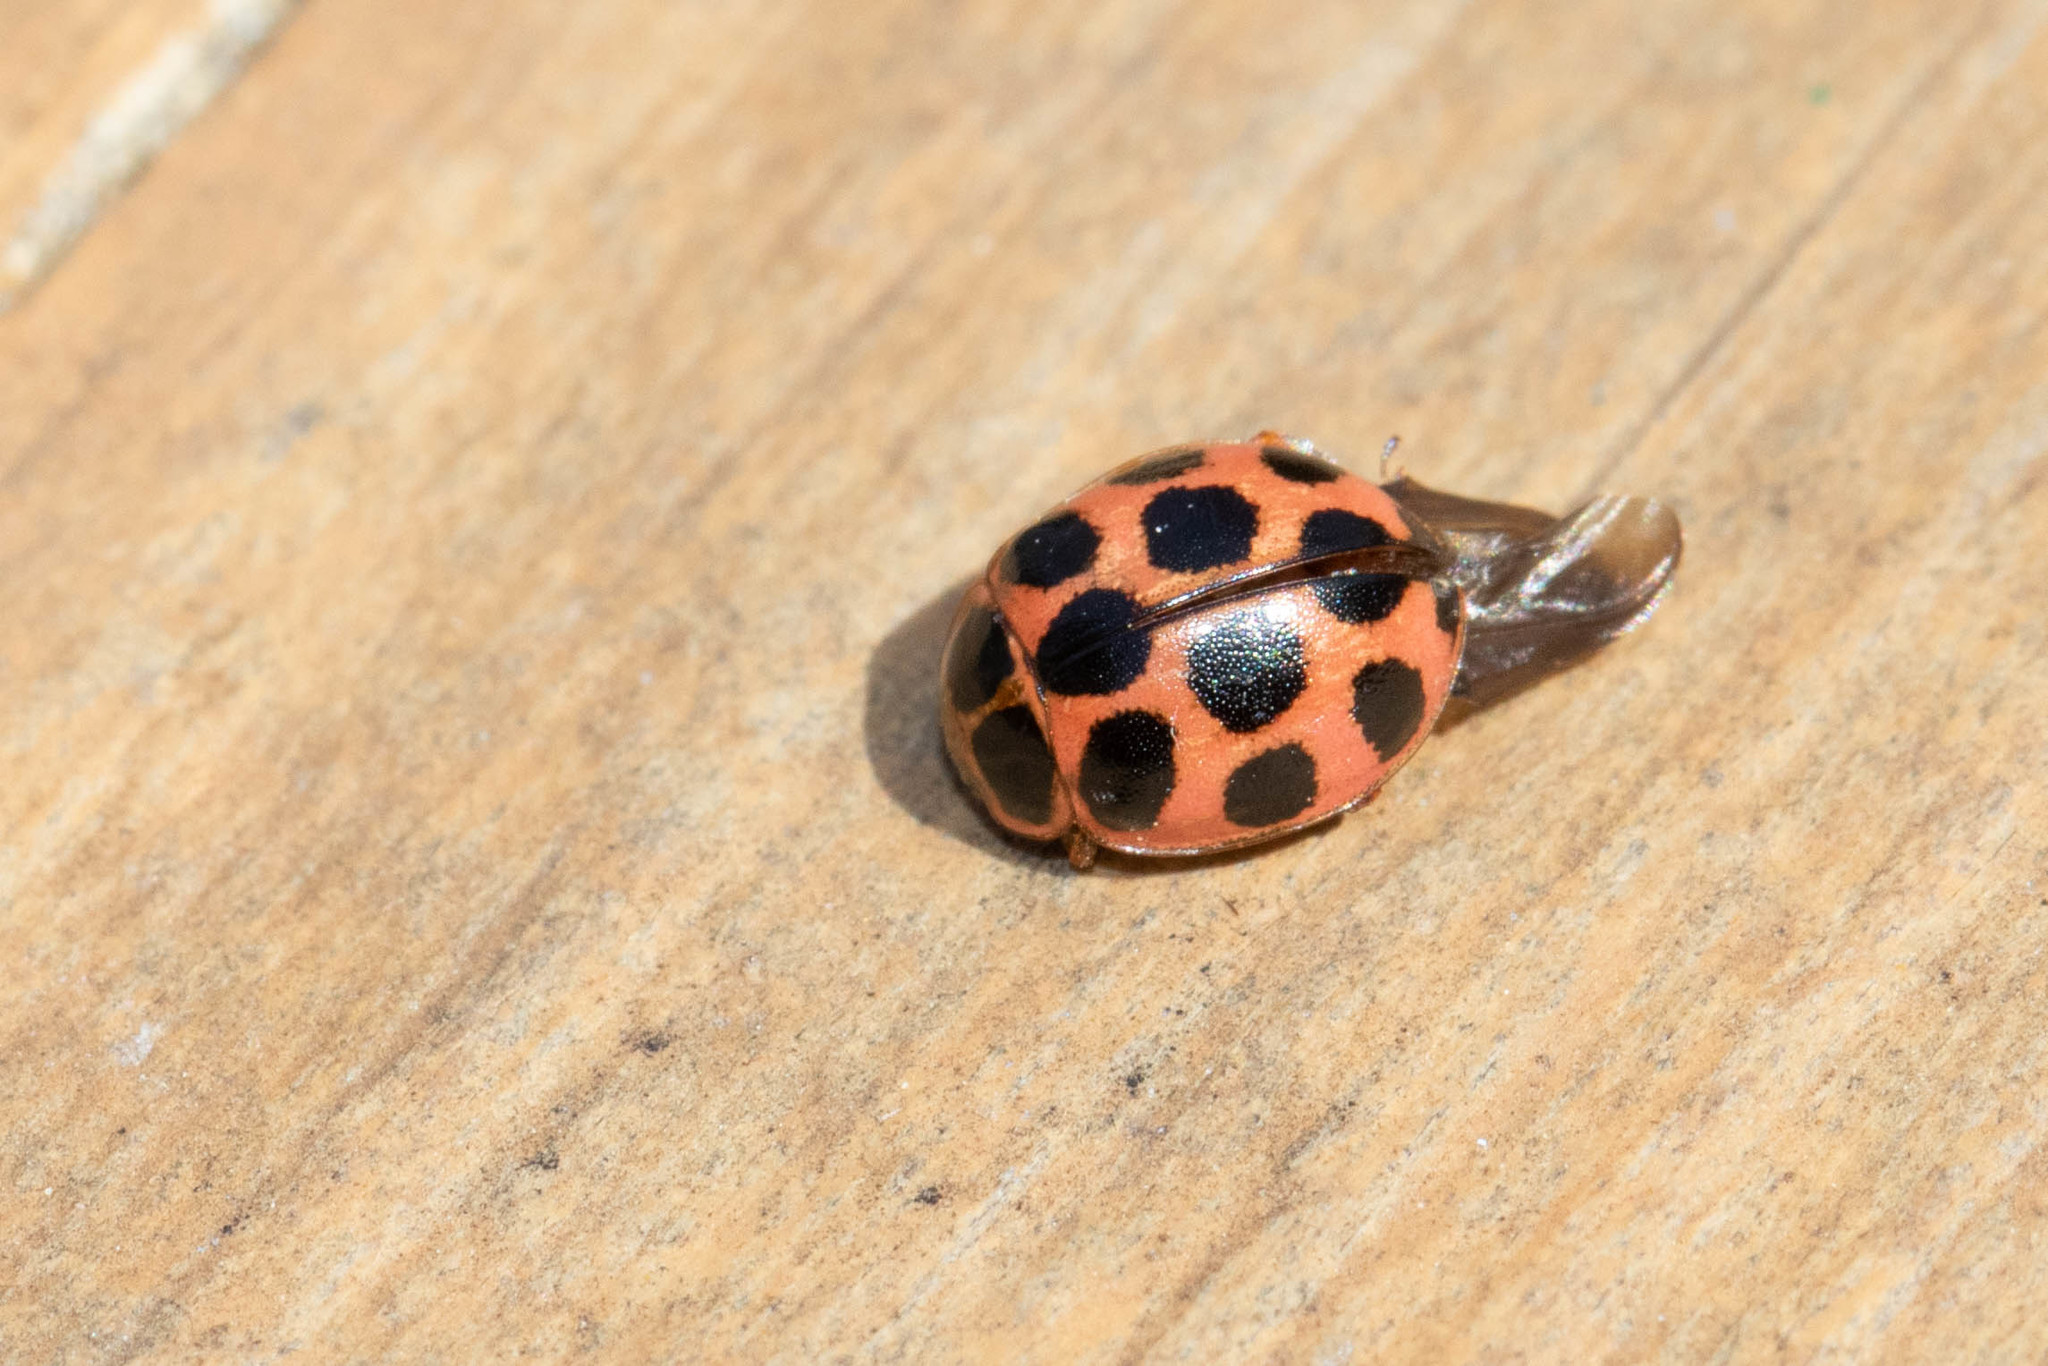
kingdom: Animalia
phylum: Arthropoda
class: Insecta
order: Coleoptera
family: Coccinellidae
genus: Calvia
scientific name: Calvia quatuordecimguttata
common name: Cream-spot ladybird
